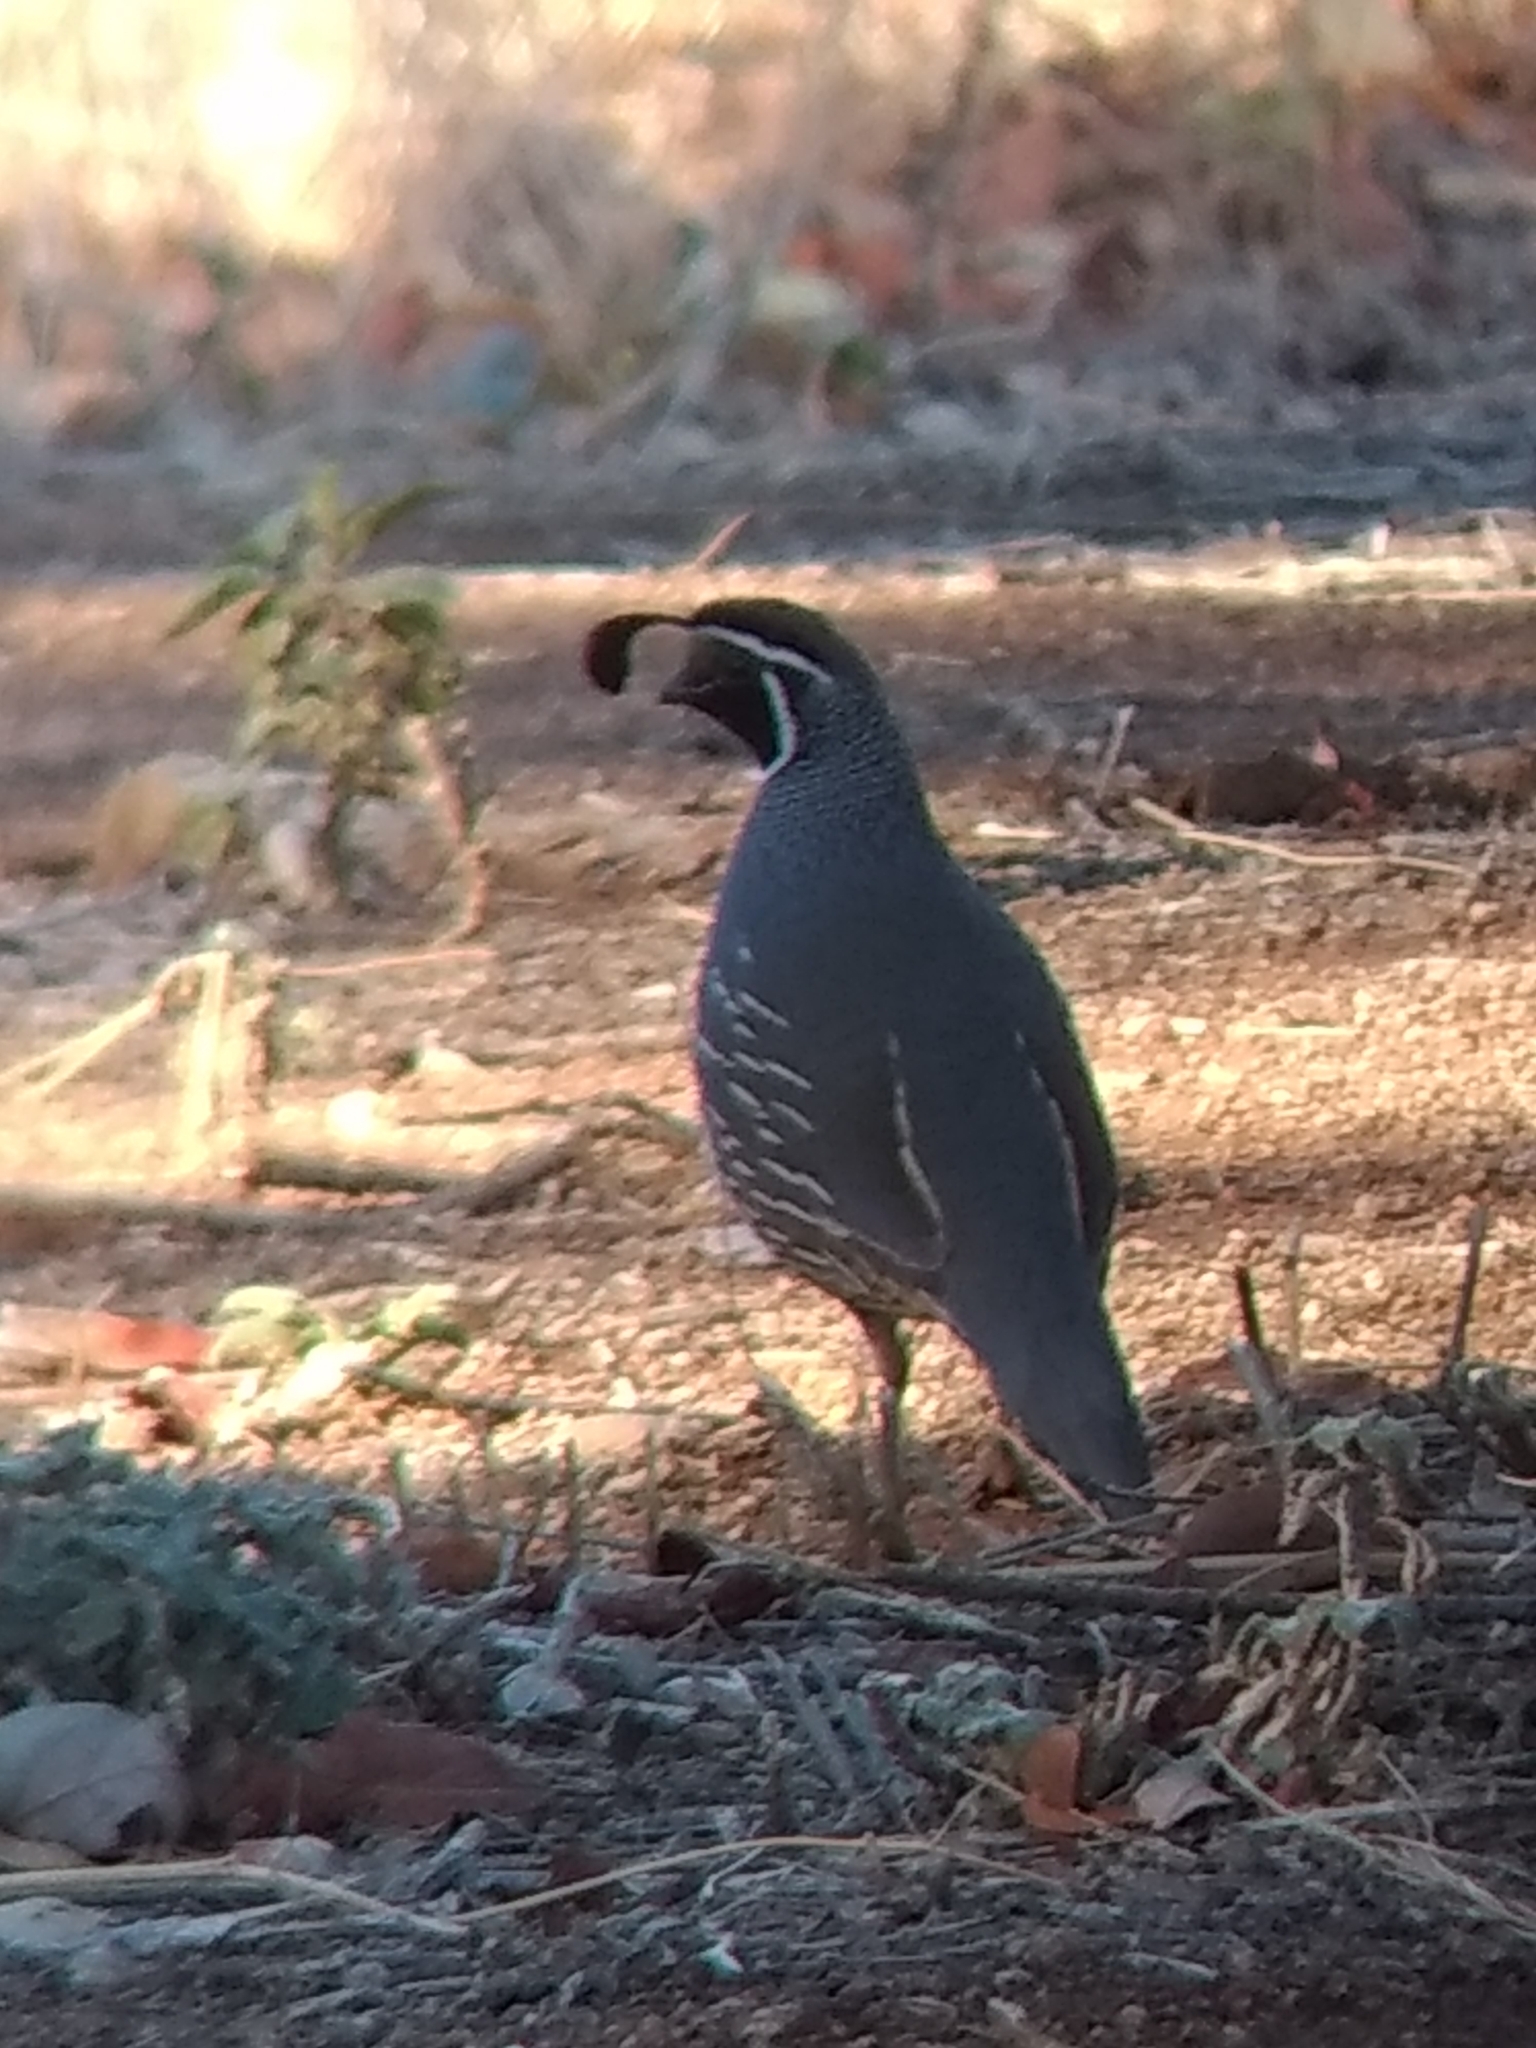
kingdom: Animalia
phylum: Chordata
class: Aves
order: Galliformes
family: Odontophoridae
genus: Callipepla
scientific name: Callipepla californica
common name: California quail
